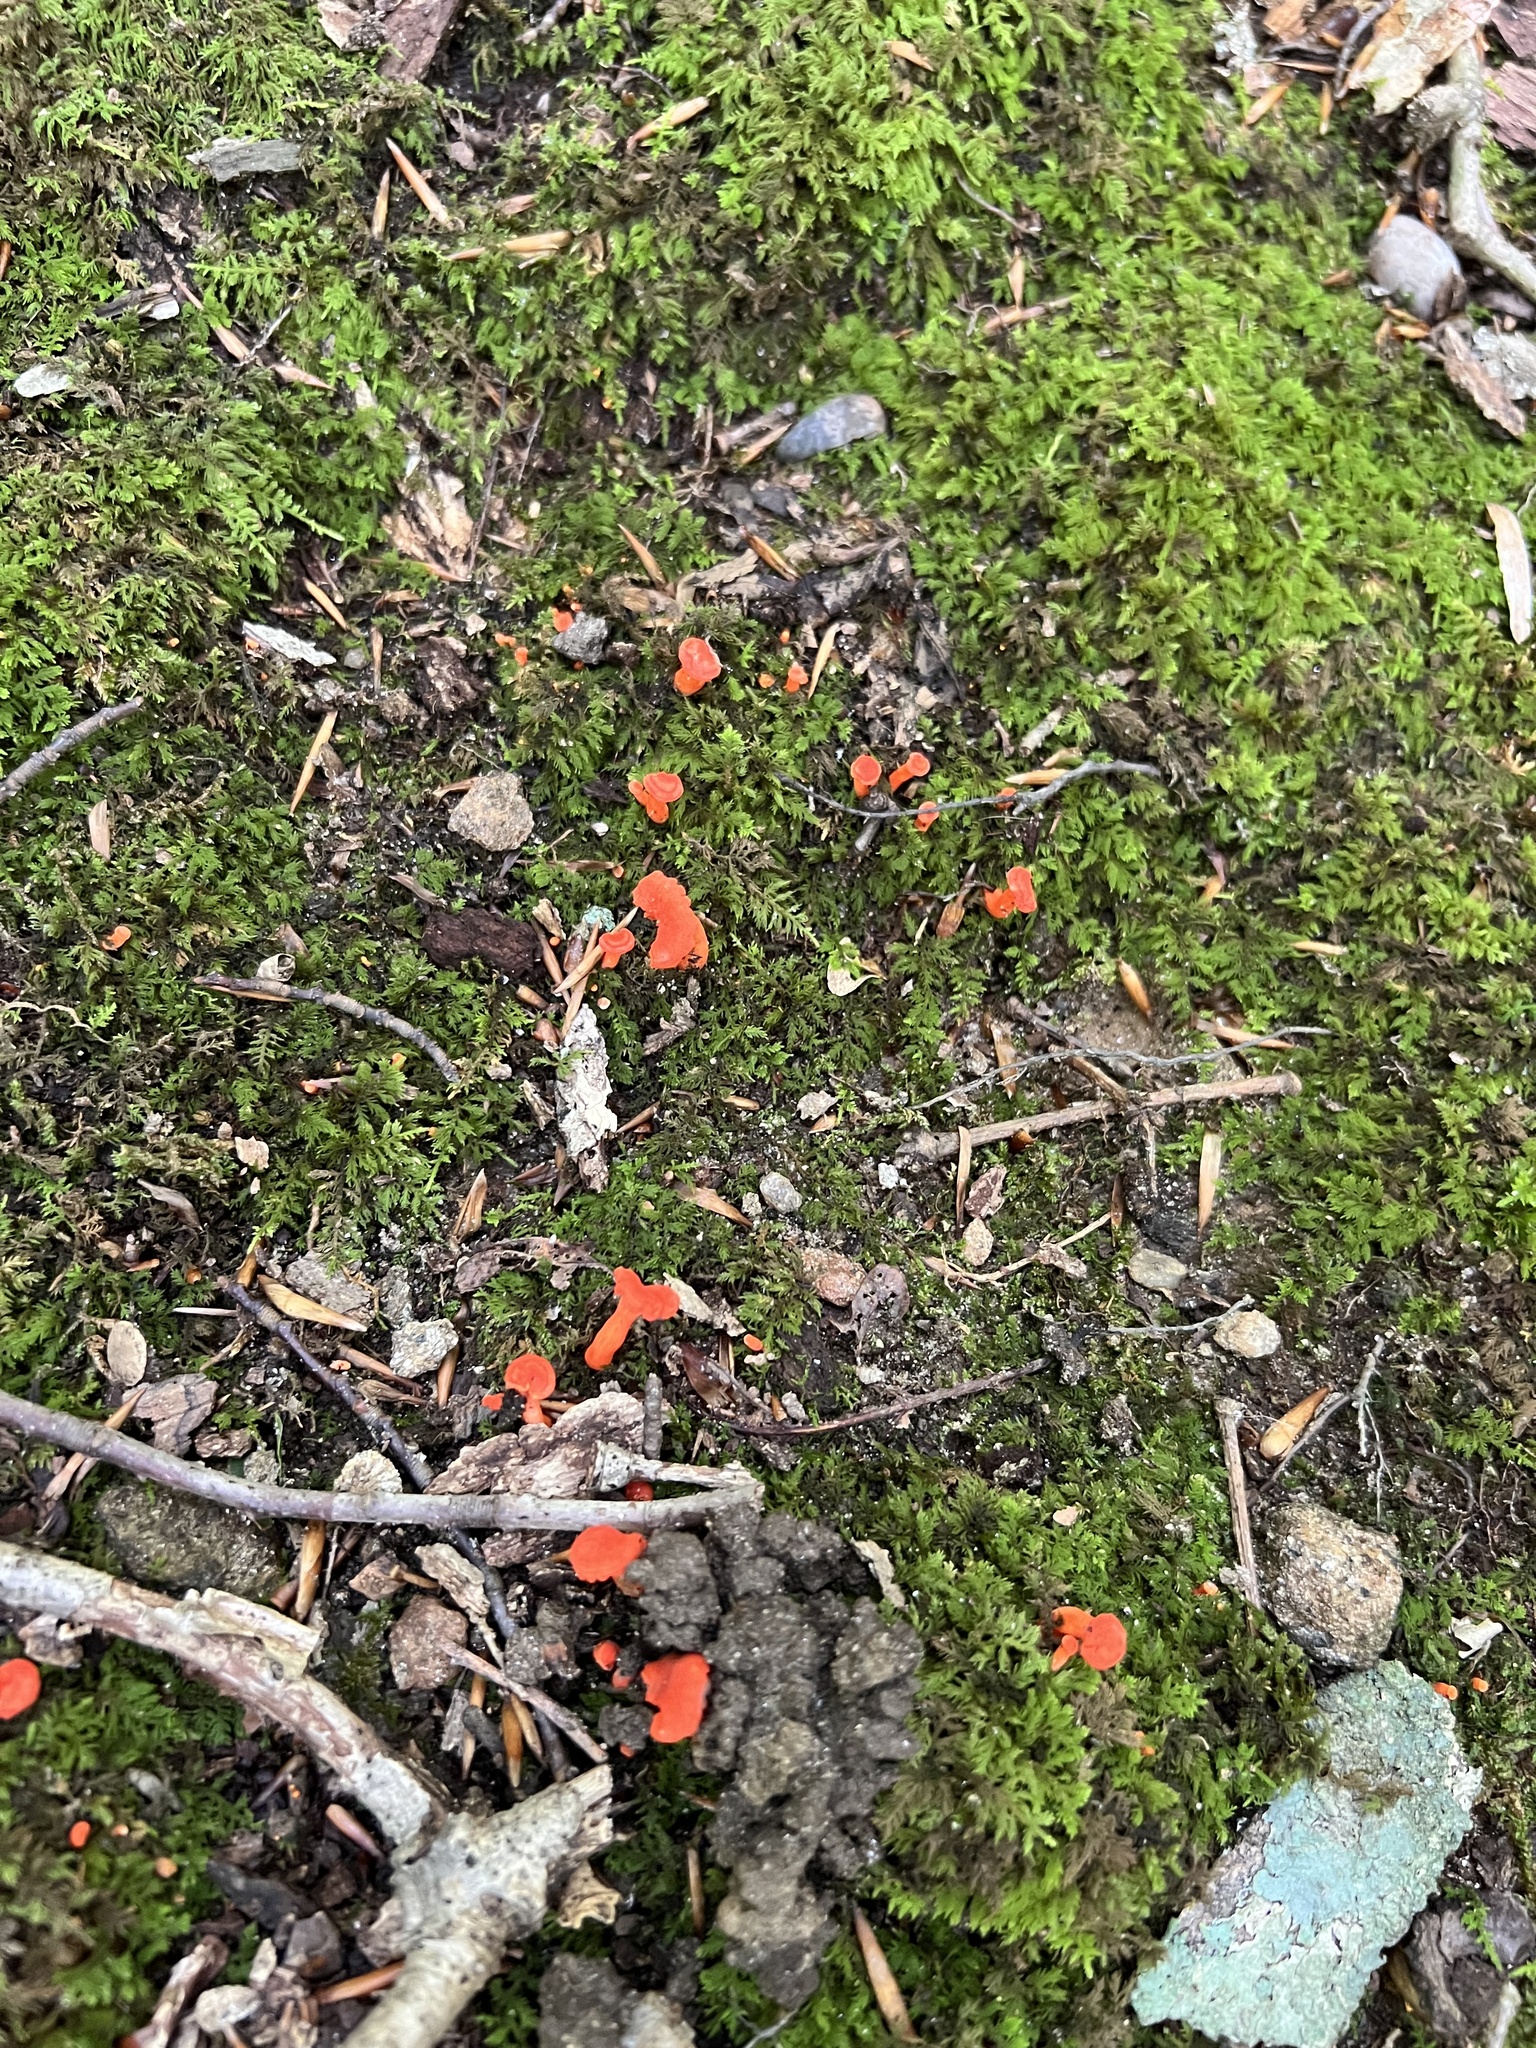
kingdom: Fungi
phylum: Basidiomycota
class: Agaricomycetes
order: Cantharellales
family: Hydnaceae
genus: Cantharellus
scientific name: Cantharellus cinnabarinus
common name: Cinnabar chanterelle
